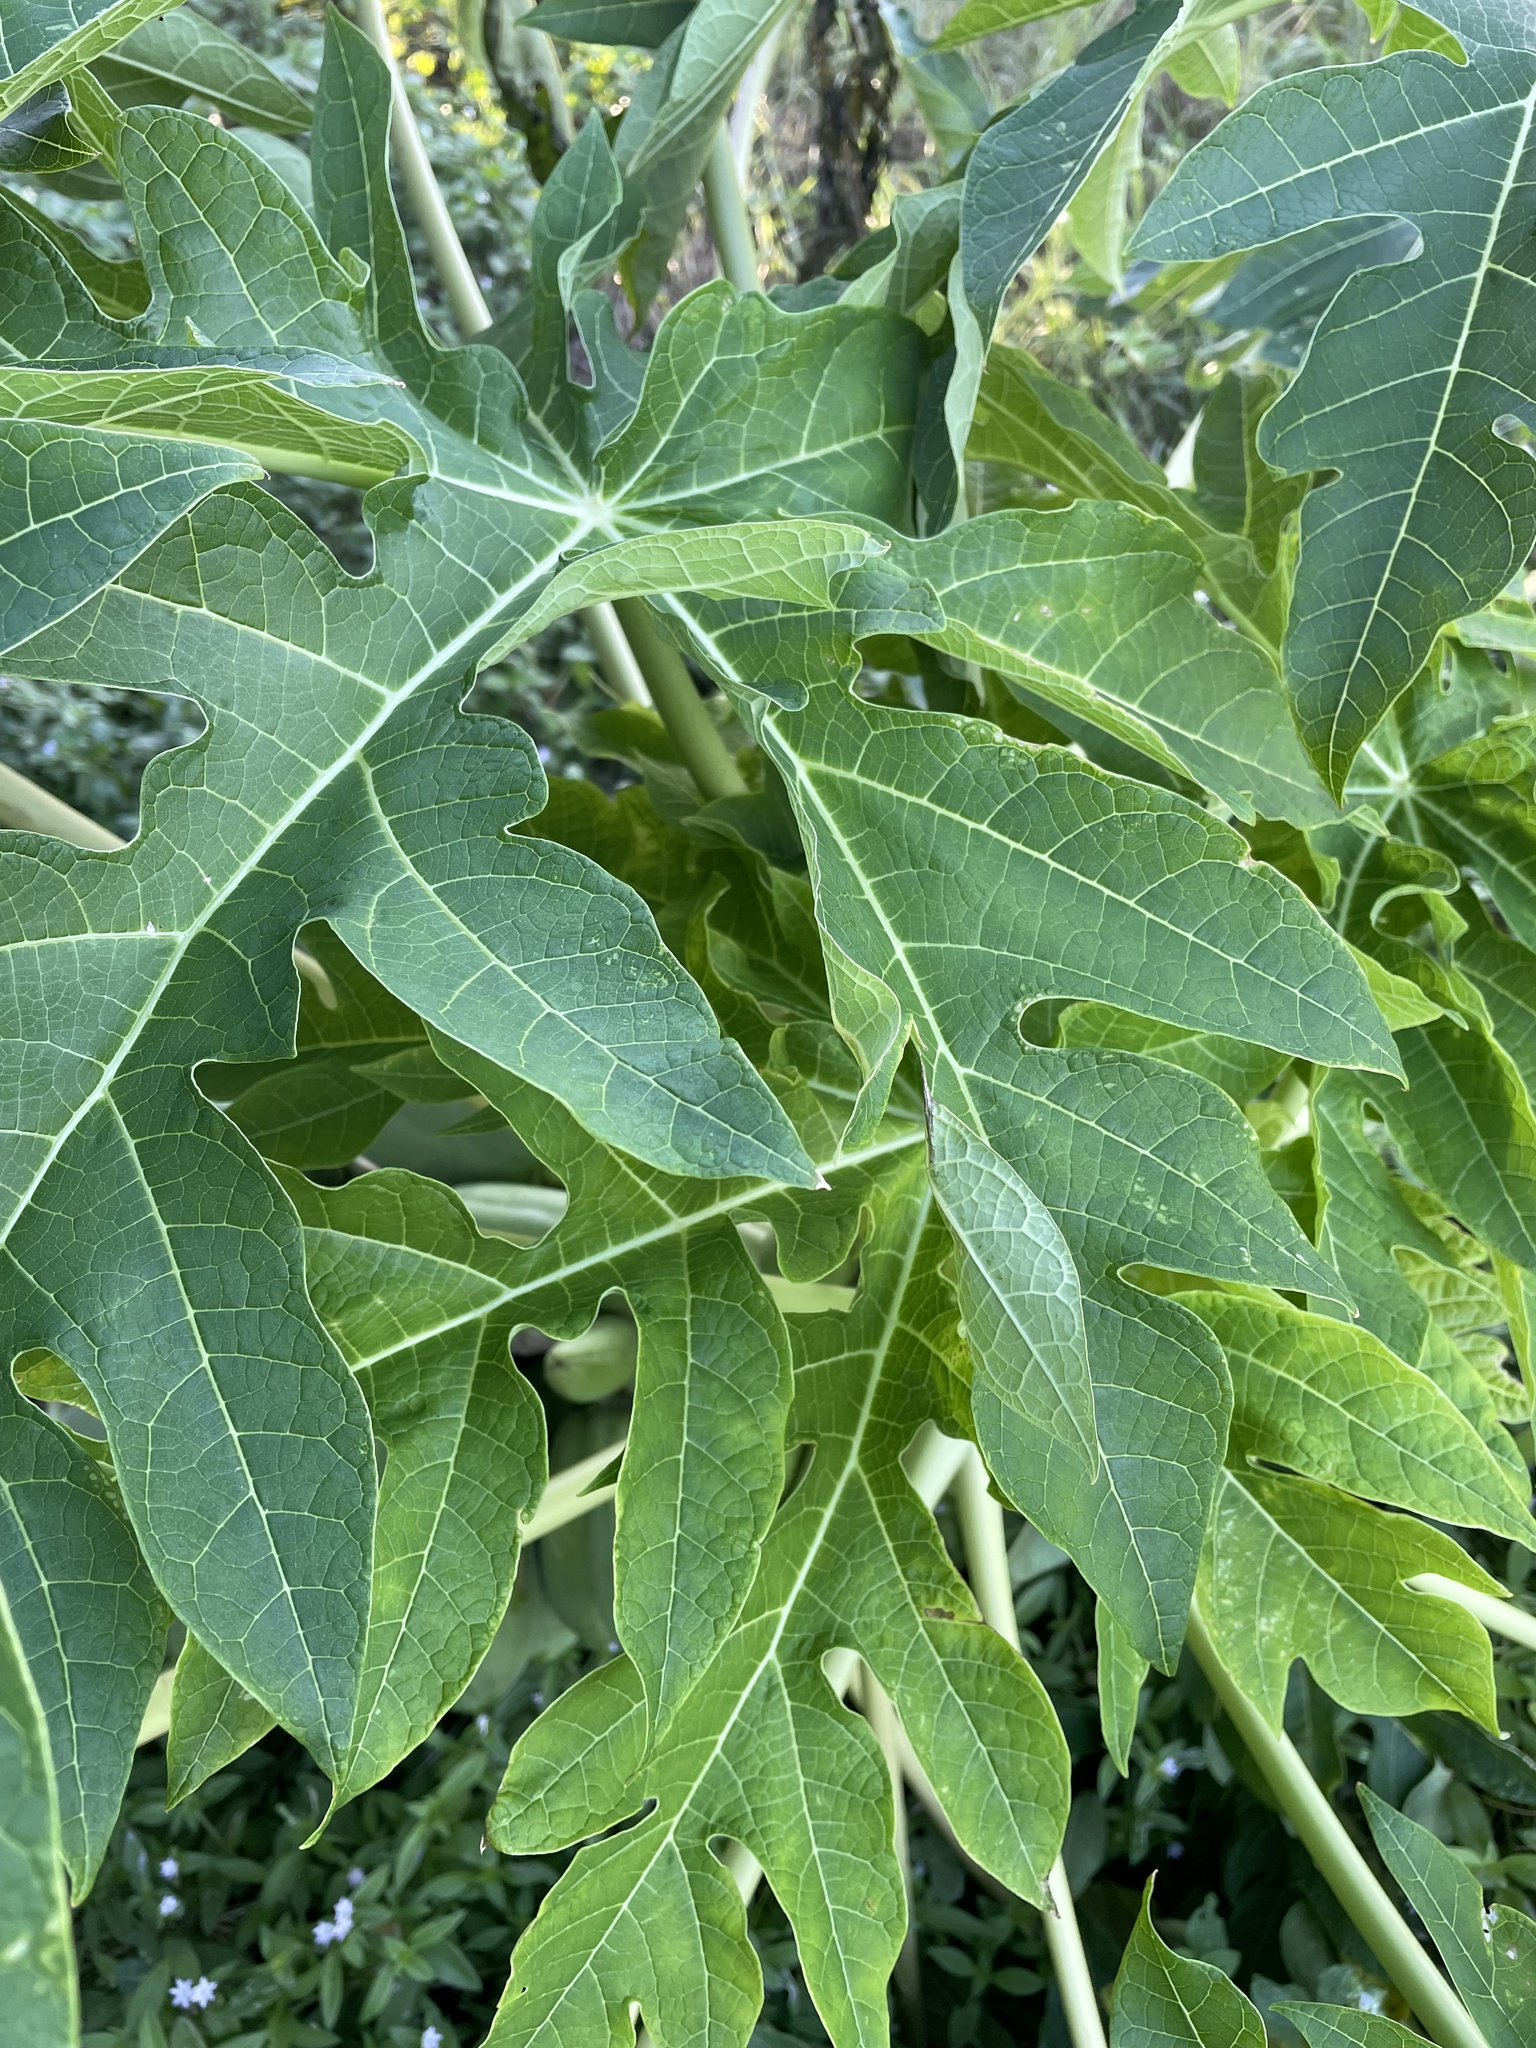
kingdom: Plantae
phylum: Tracheophyta
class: Magnoliopsida
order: Brassicales
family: Caricaceae
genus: Carica
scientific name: Carica papaya
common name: Papaya
